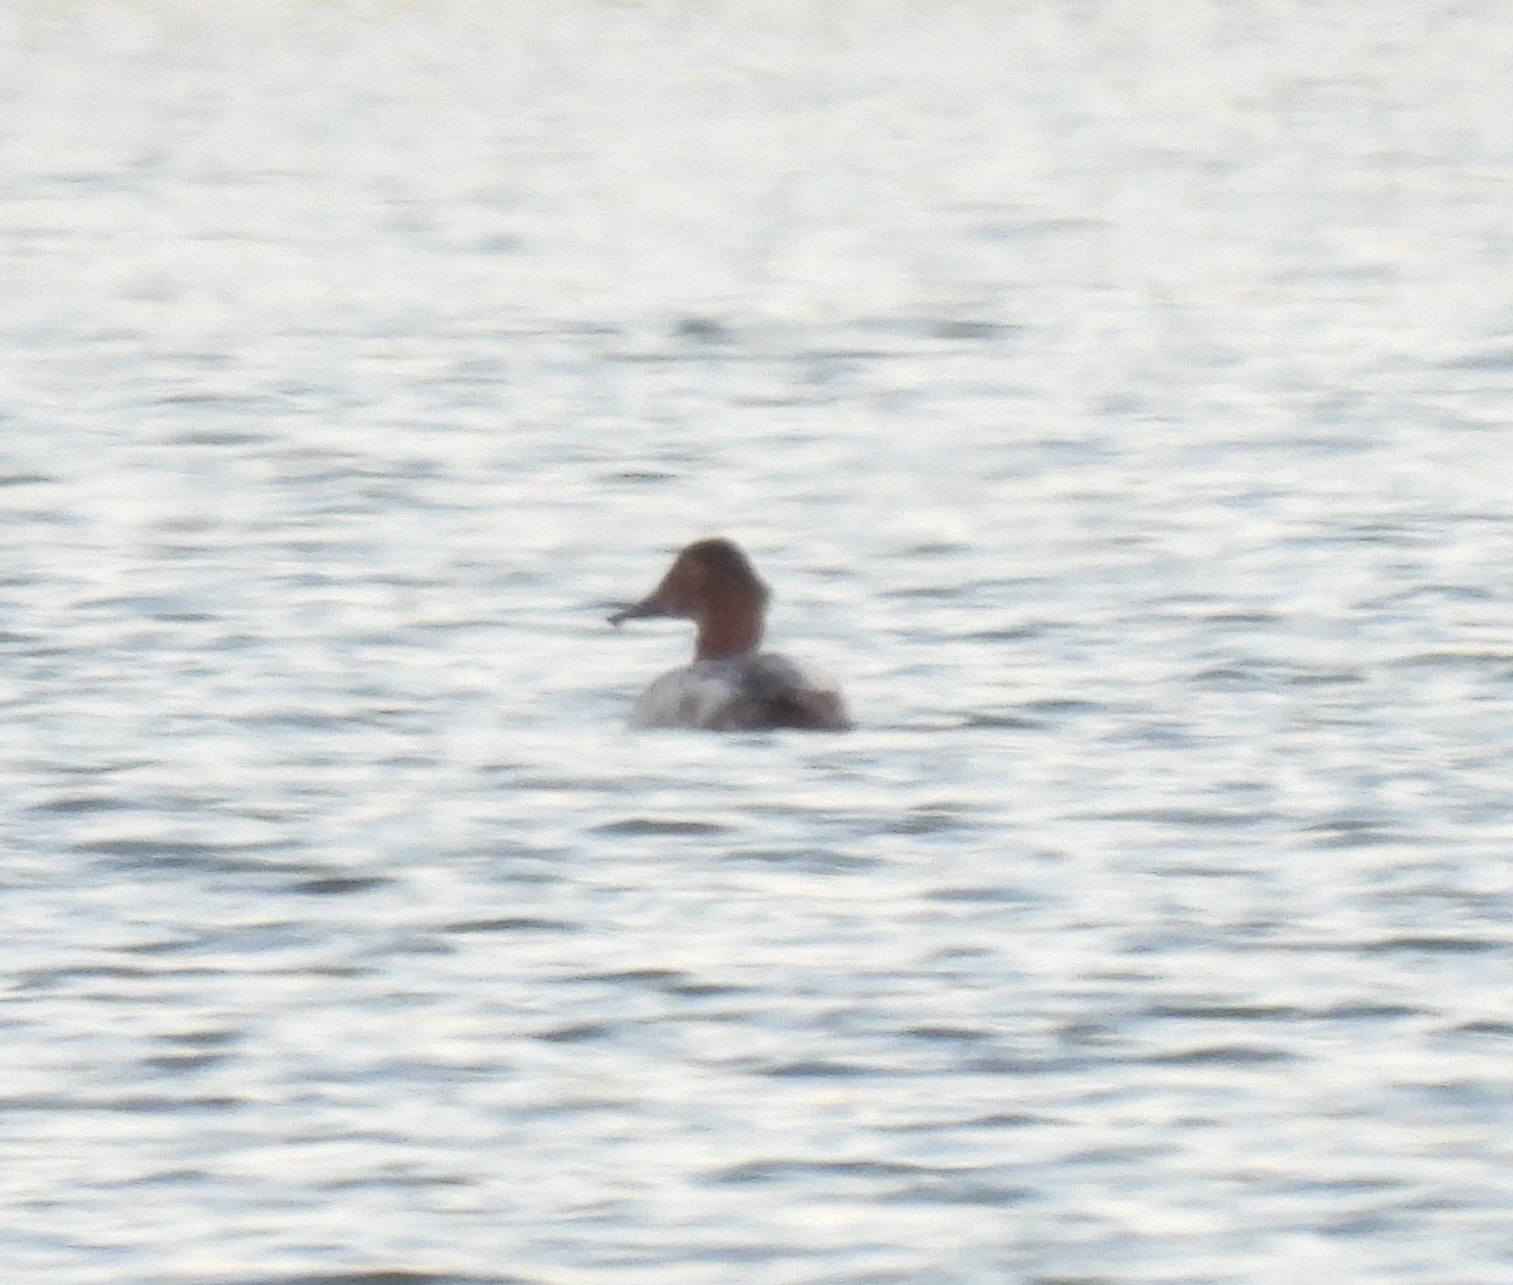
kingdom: Animalia
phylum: Chordata
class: Aves
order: Anseriformes
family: Anatidae
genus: Aythya
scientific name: Aythya valisineria
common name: Canvasback
